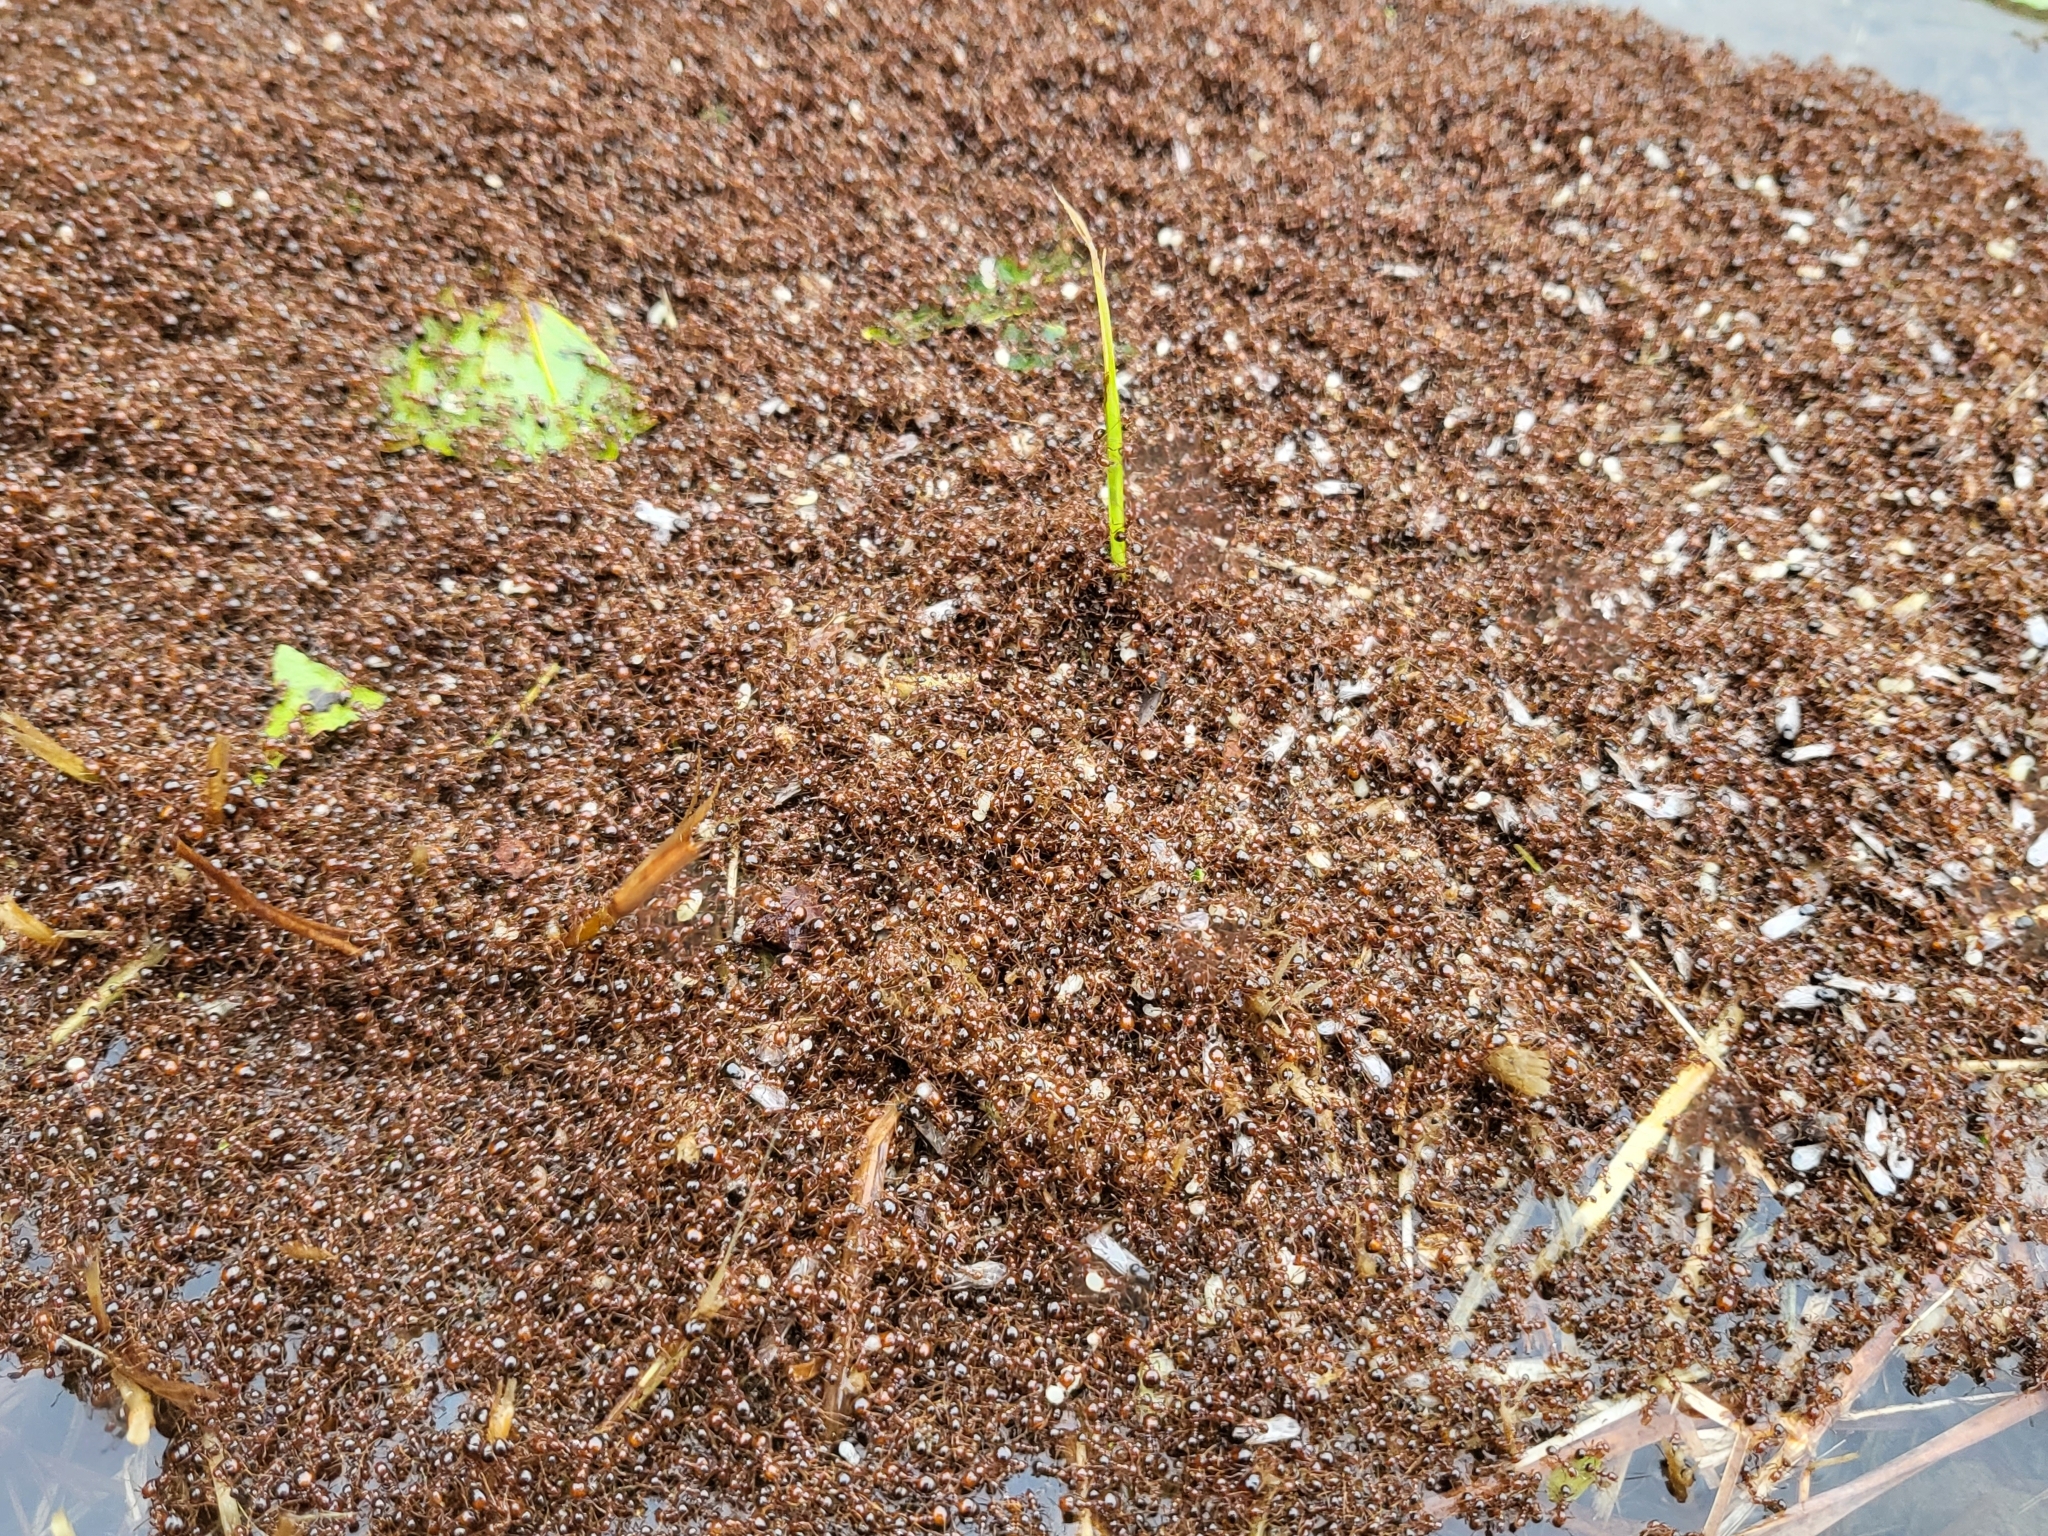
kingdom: Animalia
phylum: Arthropoda
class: Insecta
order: Hymenoptera
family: Formicidae
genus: Solenopsis
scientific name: Solenopsis invicta
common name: Red imported fire ant
